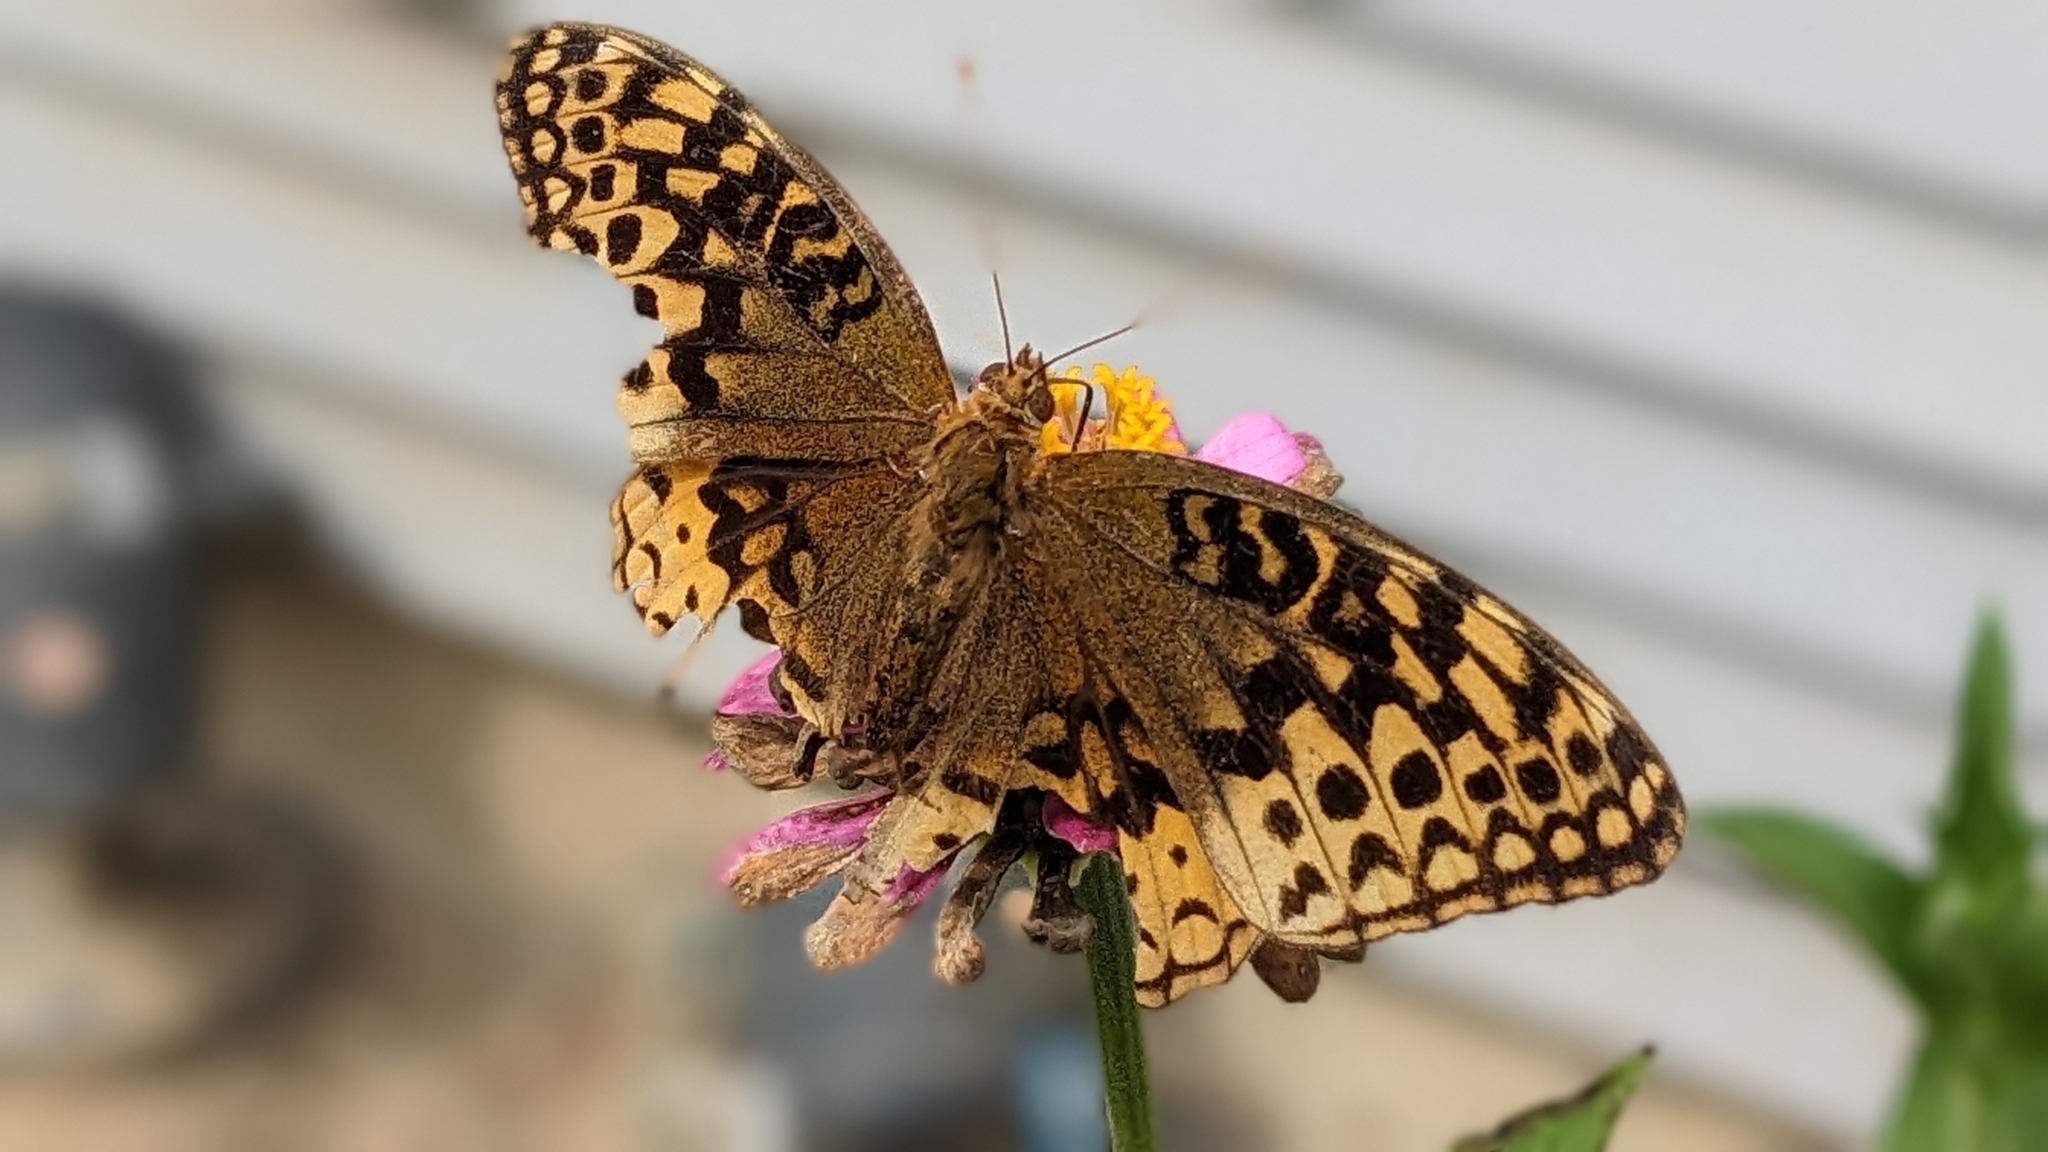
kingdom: Animalia
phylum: Arthropoda
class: Insecta
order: Lepidoptera
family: Nymphalidae
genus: Speyeria
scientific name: Speyeria cybele
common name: Great spangled fritillary
